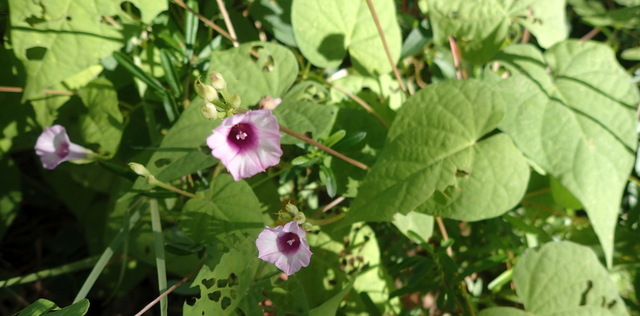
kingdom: Plantae
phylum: Tracheophyta
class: Magnoliopsida
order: Solanales
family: Convolvulaceae
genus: Ipomoea
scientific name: Ipomoea triloba
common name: Little-bell
